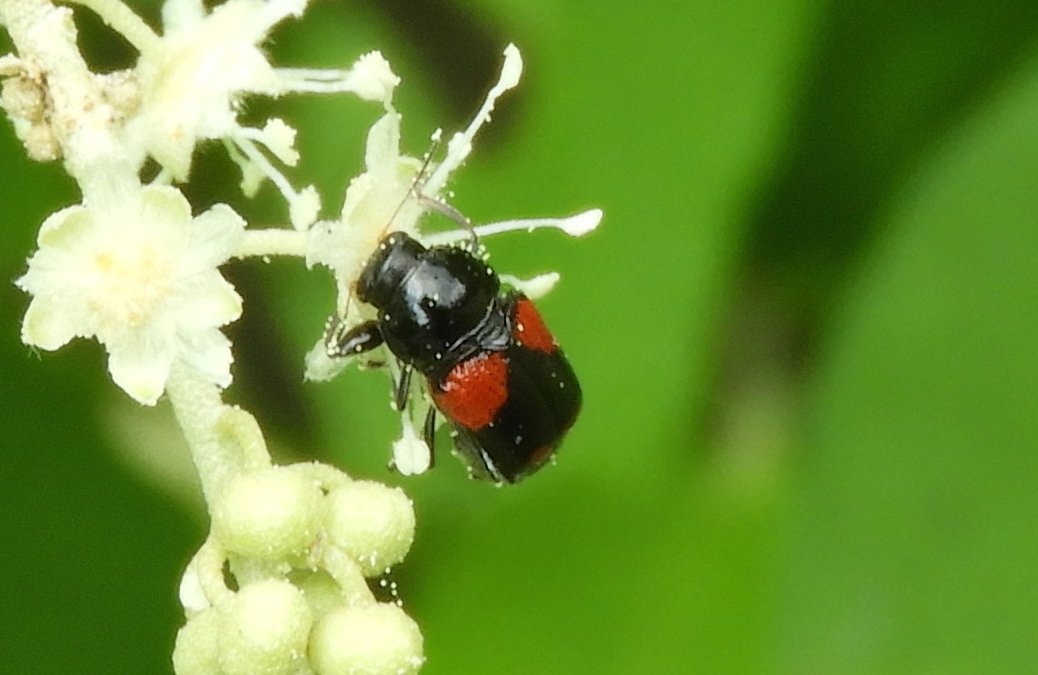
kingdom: Animalia
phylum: Arthropoda
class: Insecta
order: Coleoptera
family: Chrysomelidae
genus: Cryptocephalus
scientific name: Cryptocephalus
